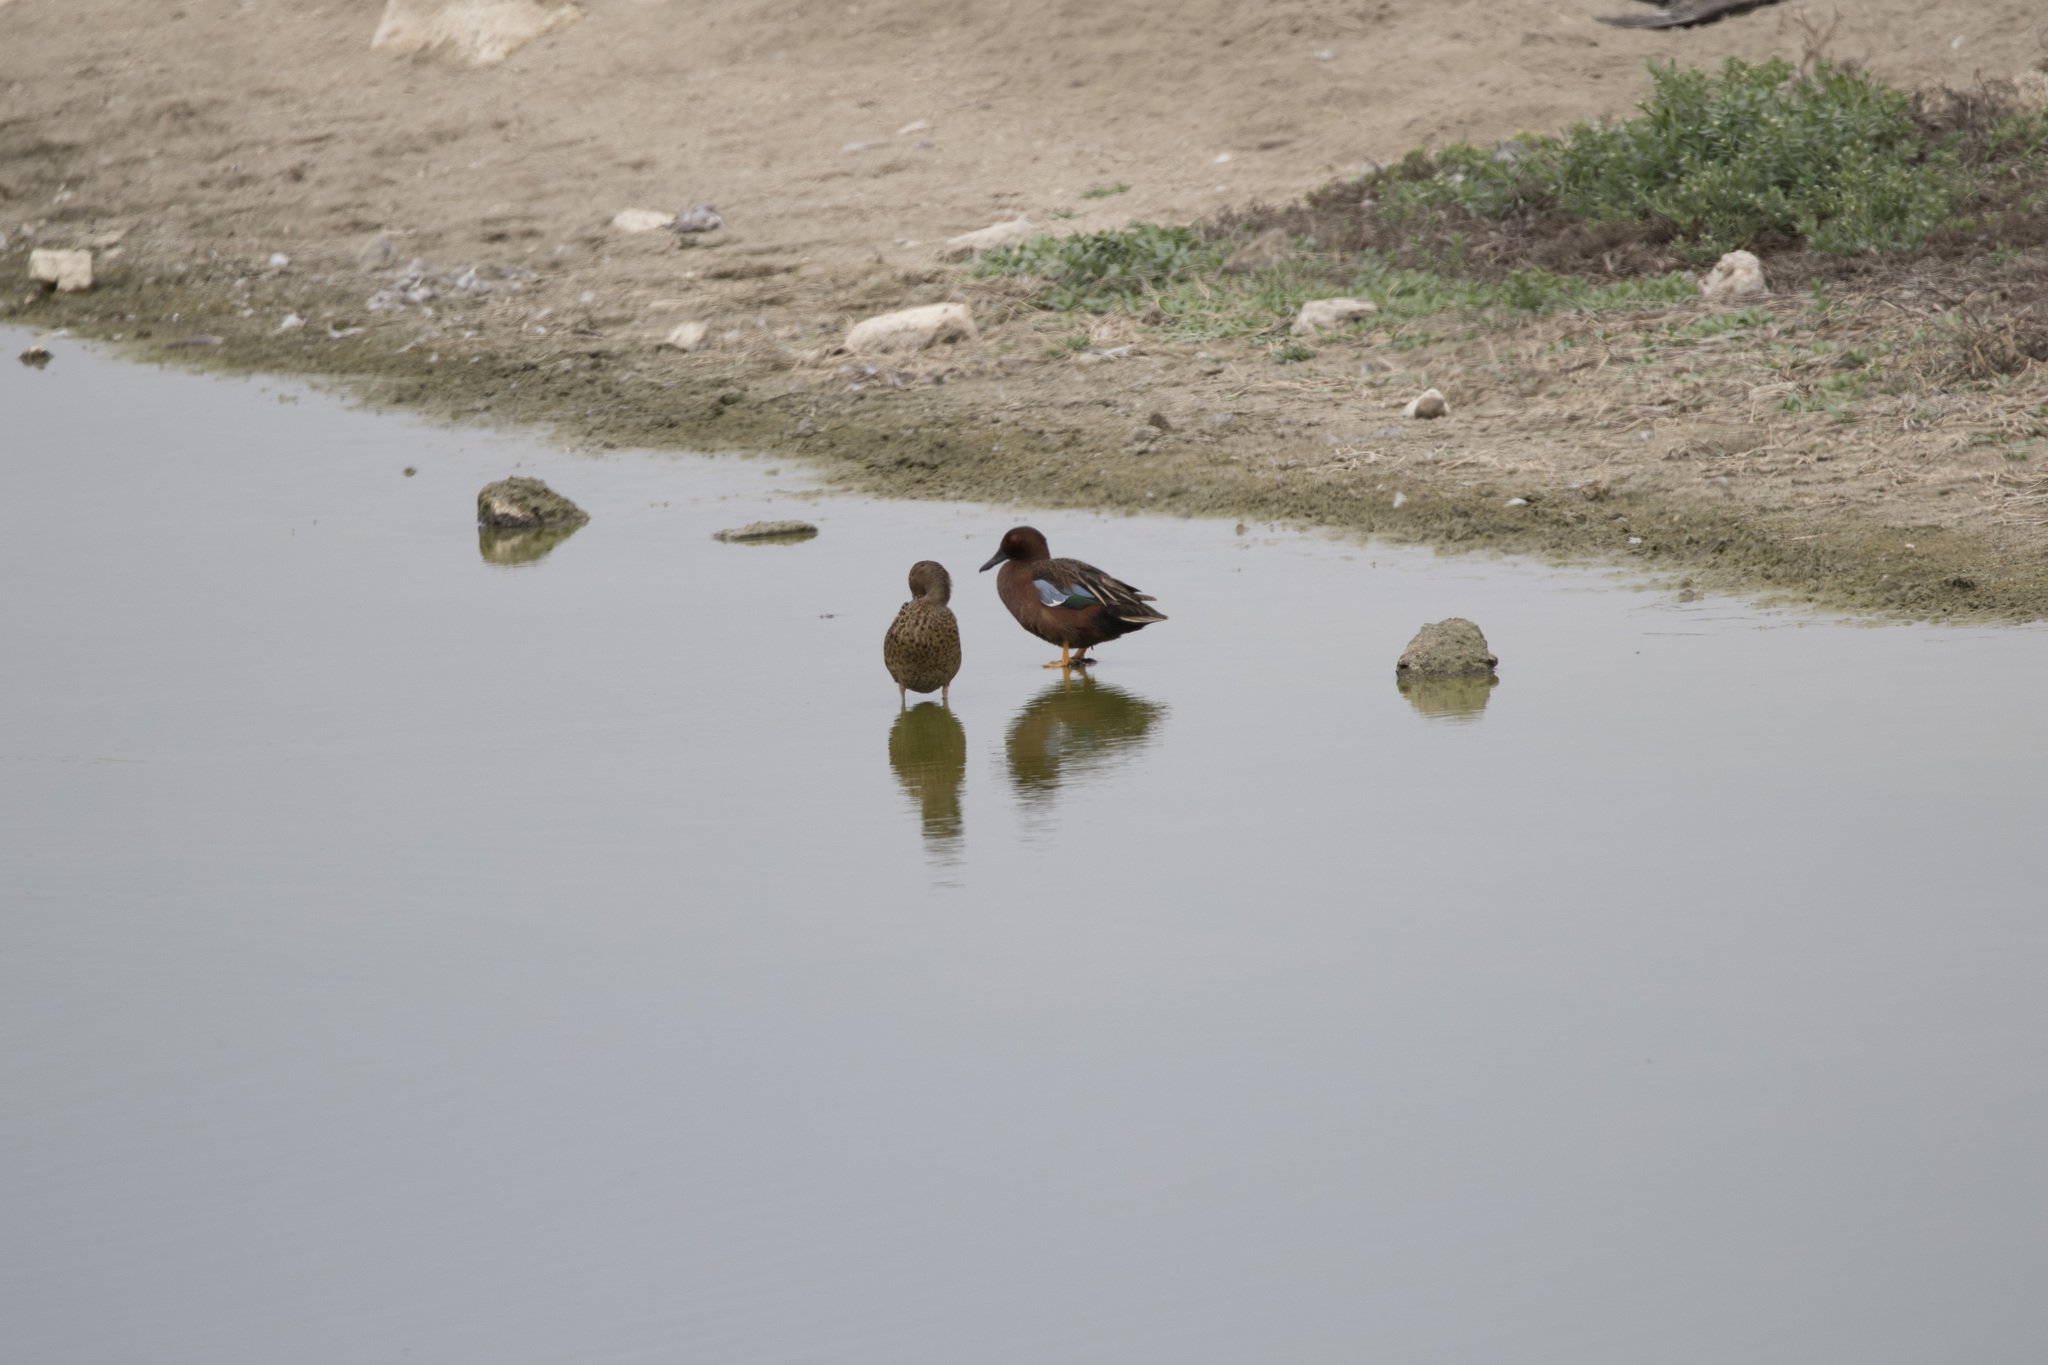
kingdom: Animalia
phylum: Chordata
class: Aves
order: Anseriformes
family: Anatidae
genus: Spatula
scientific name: Spatula cyanoptera
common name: Cinnamon teal
